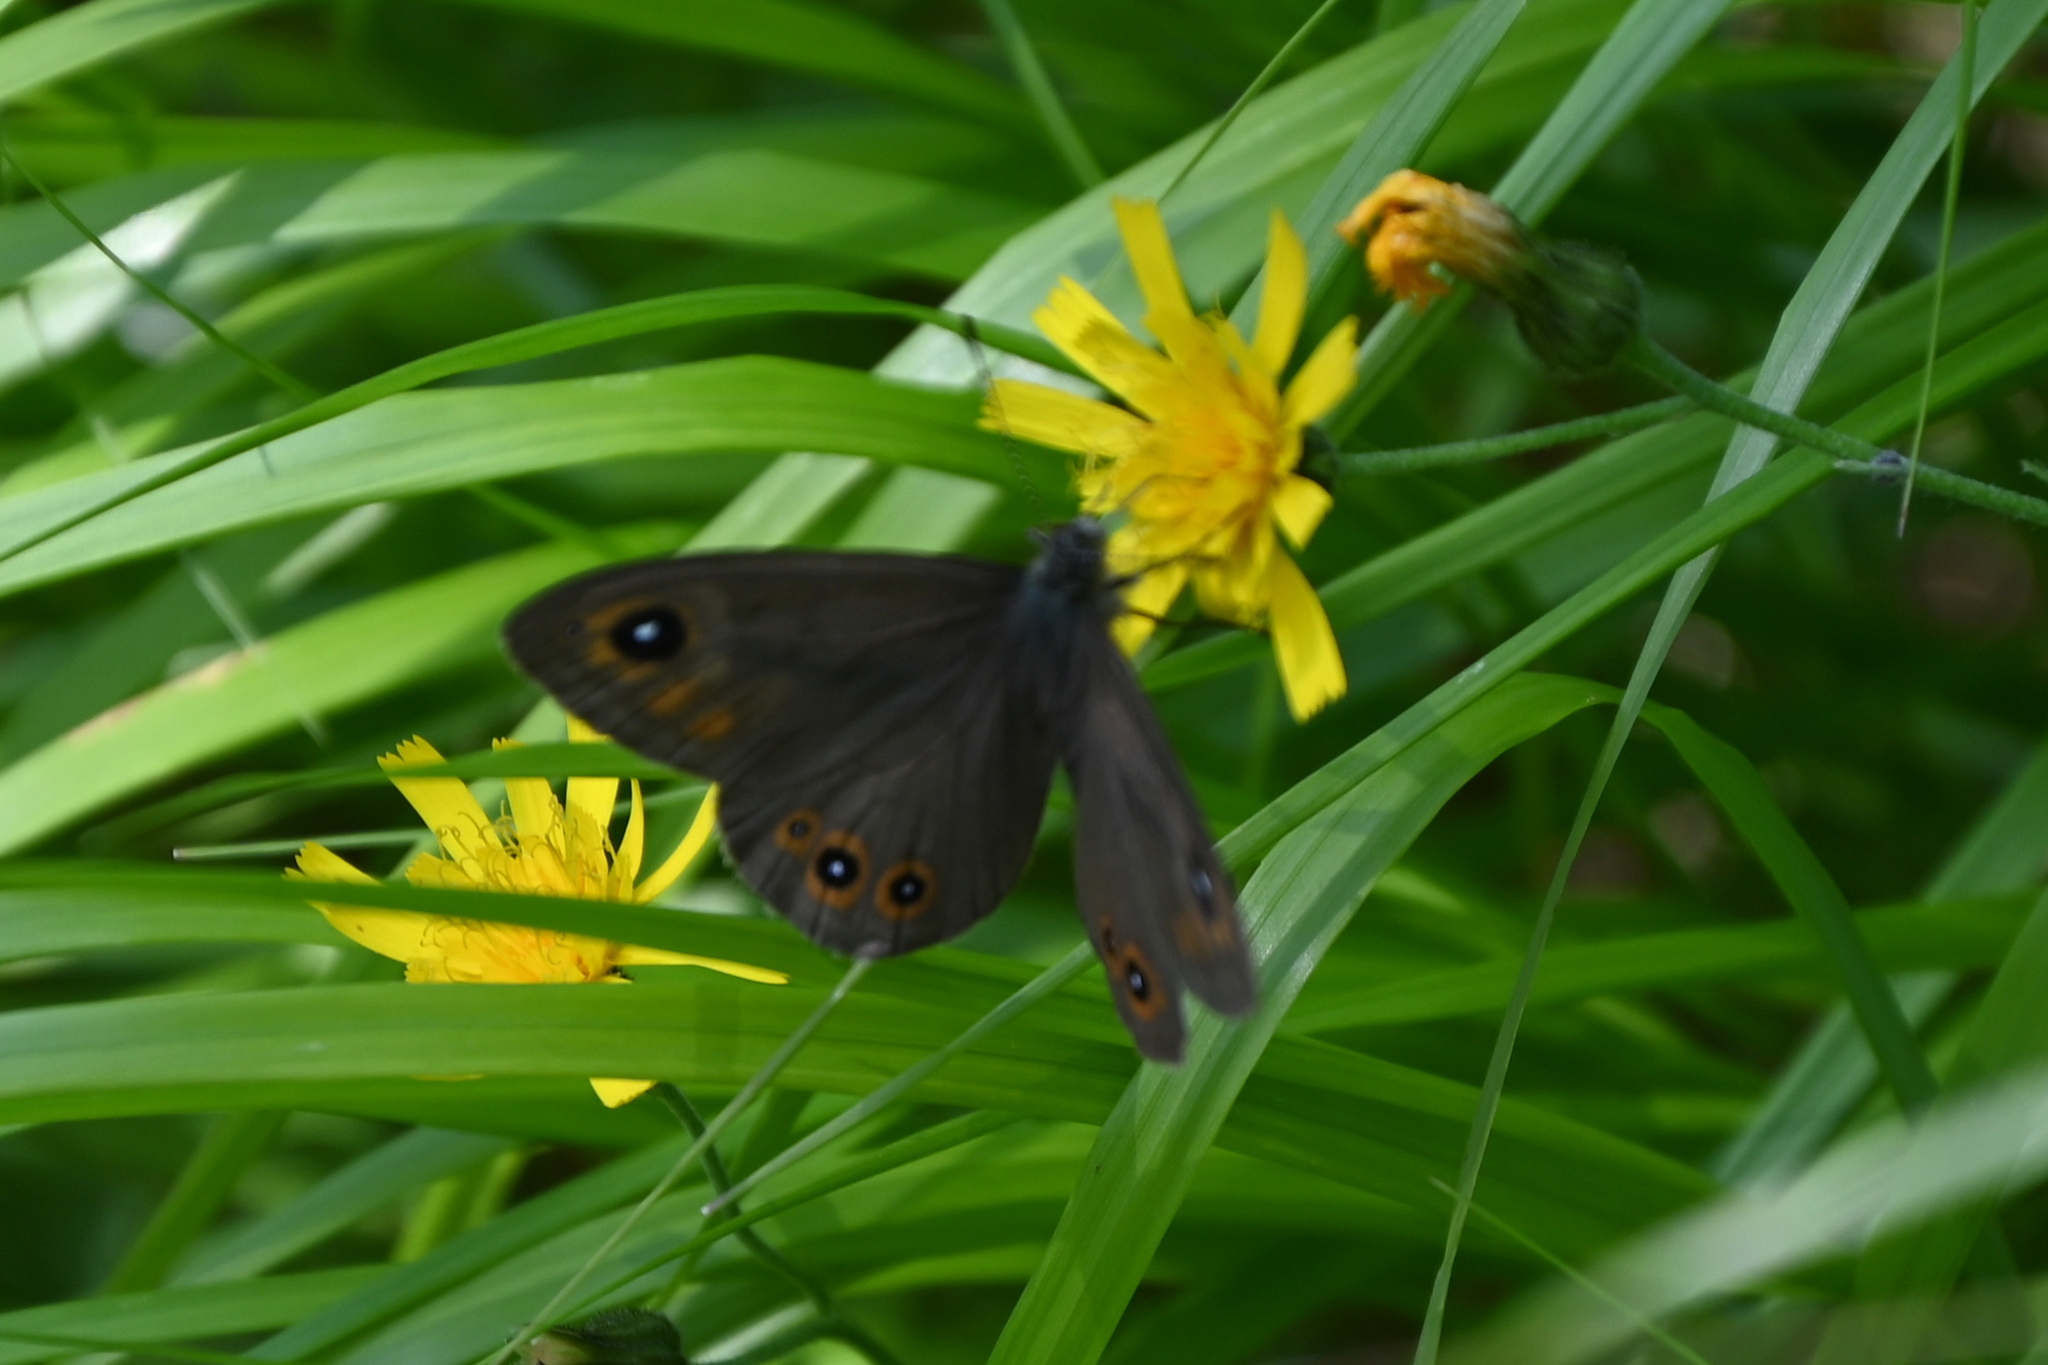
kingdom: Animalia
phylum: Arthropoda
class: Insecta
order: Lepidoptera
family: Nymphalidae
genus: Pararge
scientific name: Pararge Lasiommata maera
